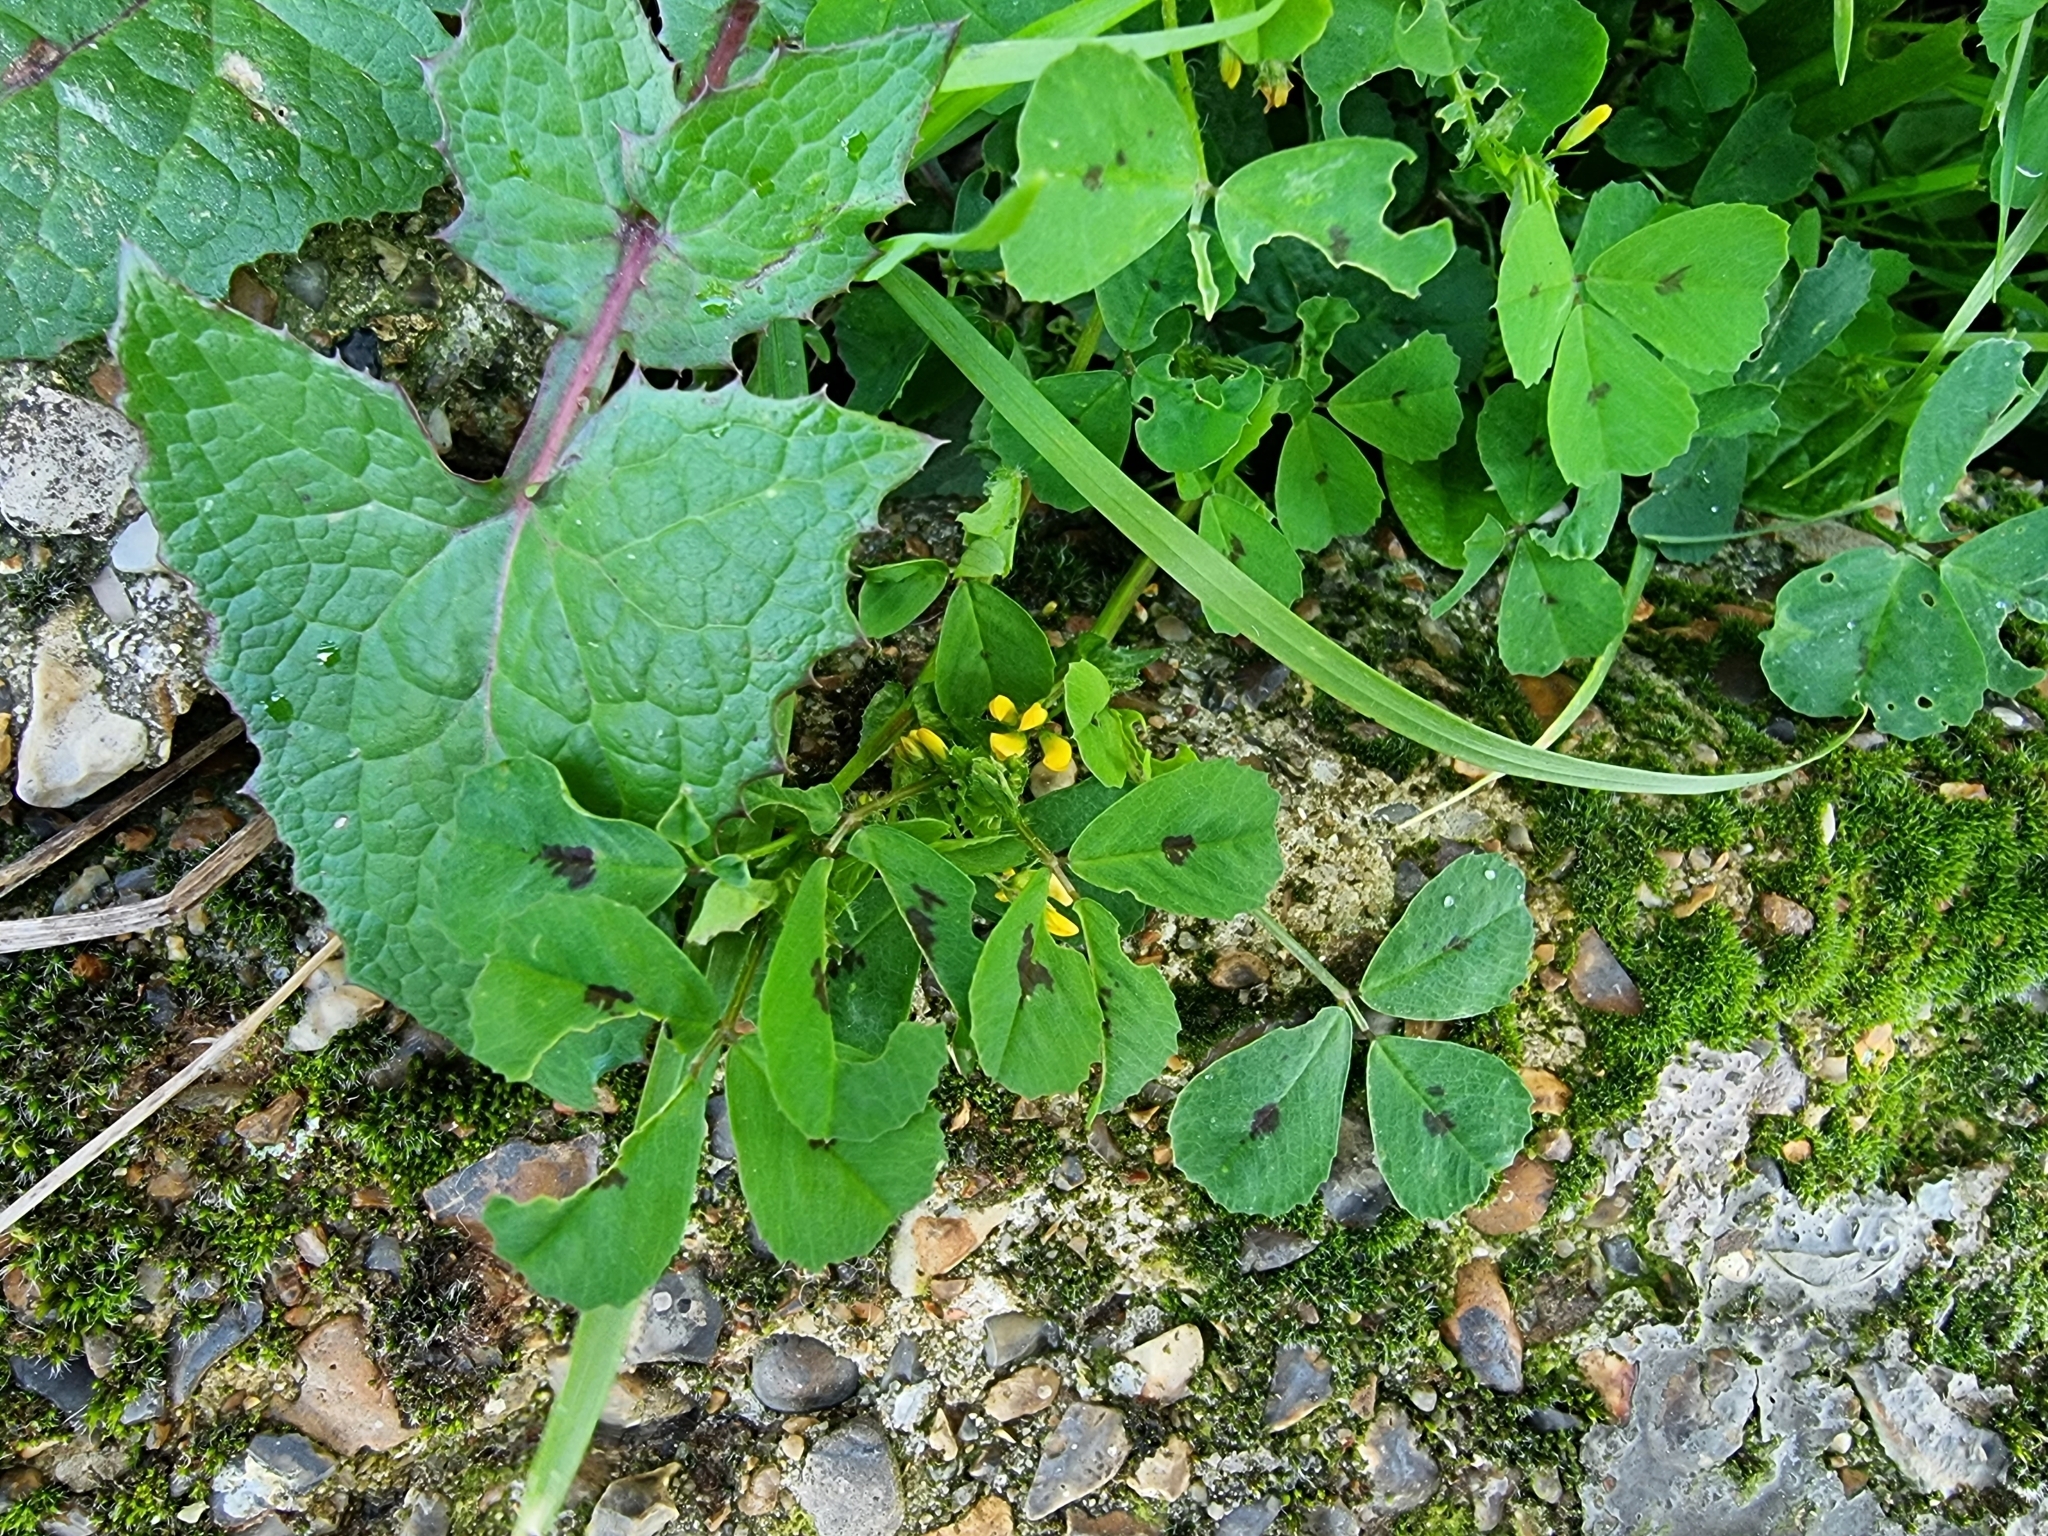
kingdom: Plantae
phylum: Tracheophyta
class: Magnoliopsida
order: Fabales
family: Fabaceae
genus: Medicago
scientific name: Medicago arabica
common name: Spotted medick
